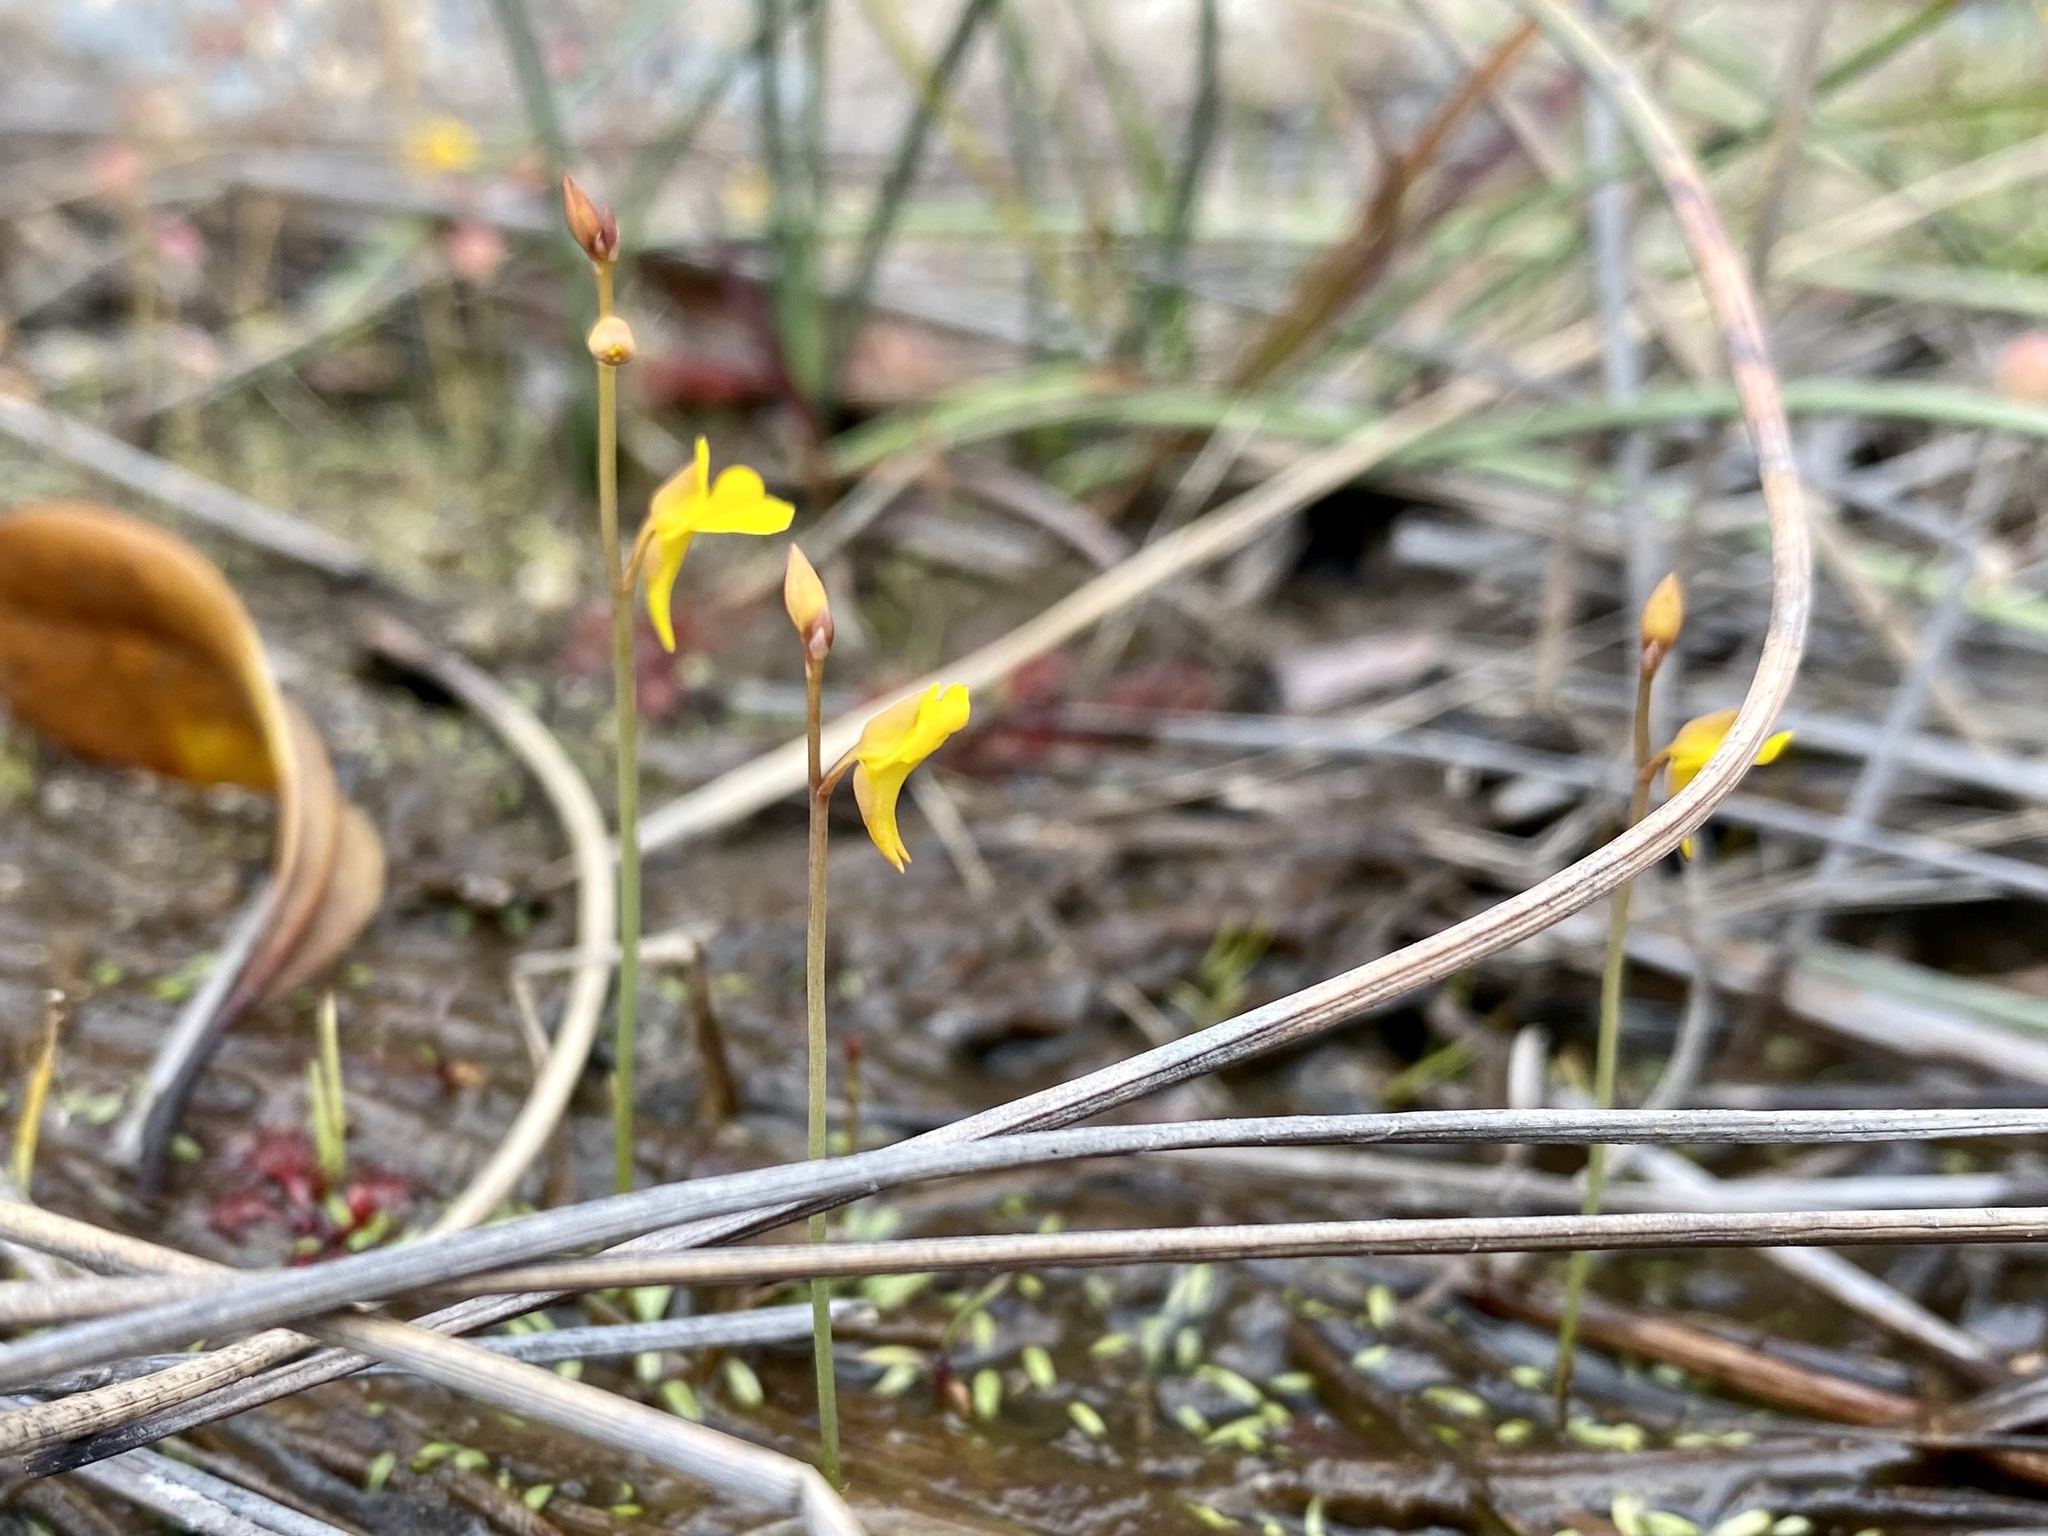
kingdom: Plantae
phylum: Tracheophyta
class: Magnoliopsida
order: Lamiales
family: Lentibulariaceae
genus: Utricularia
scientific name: Utricularia bifida
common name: Bifid bladderwort
